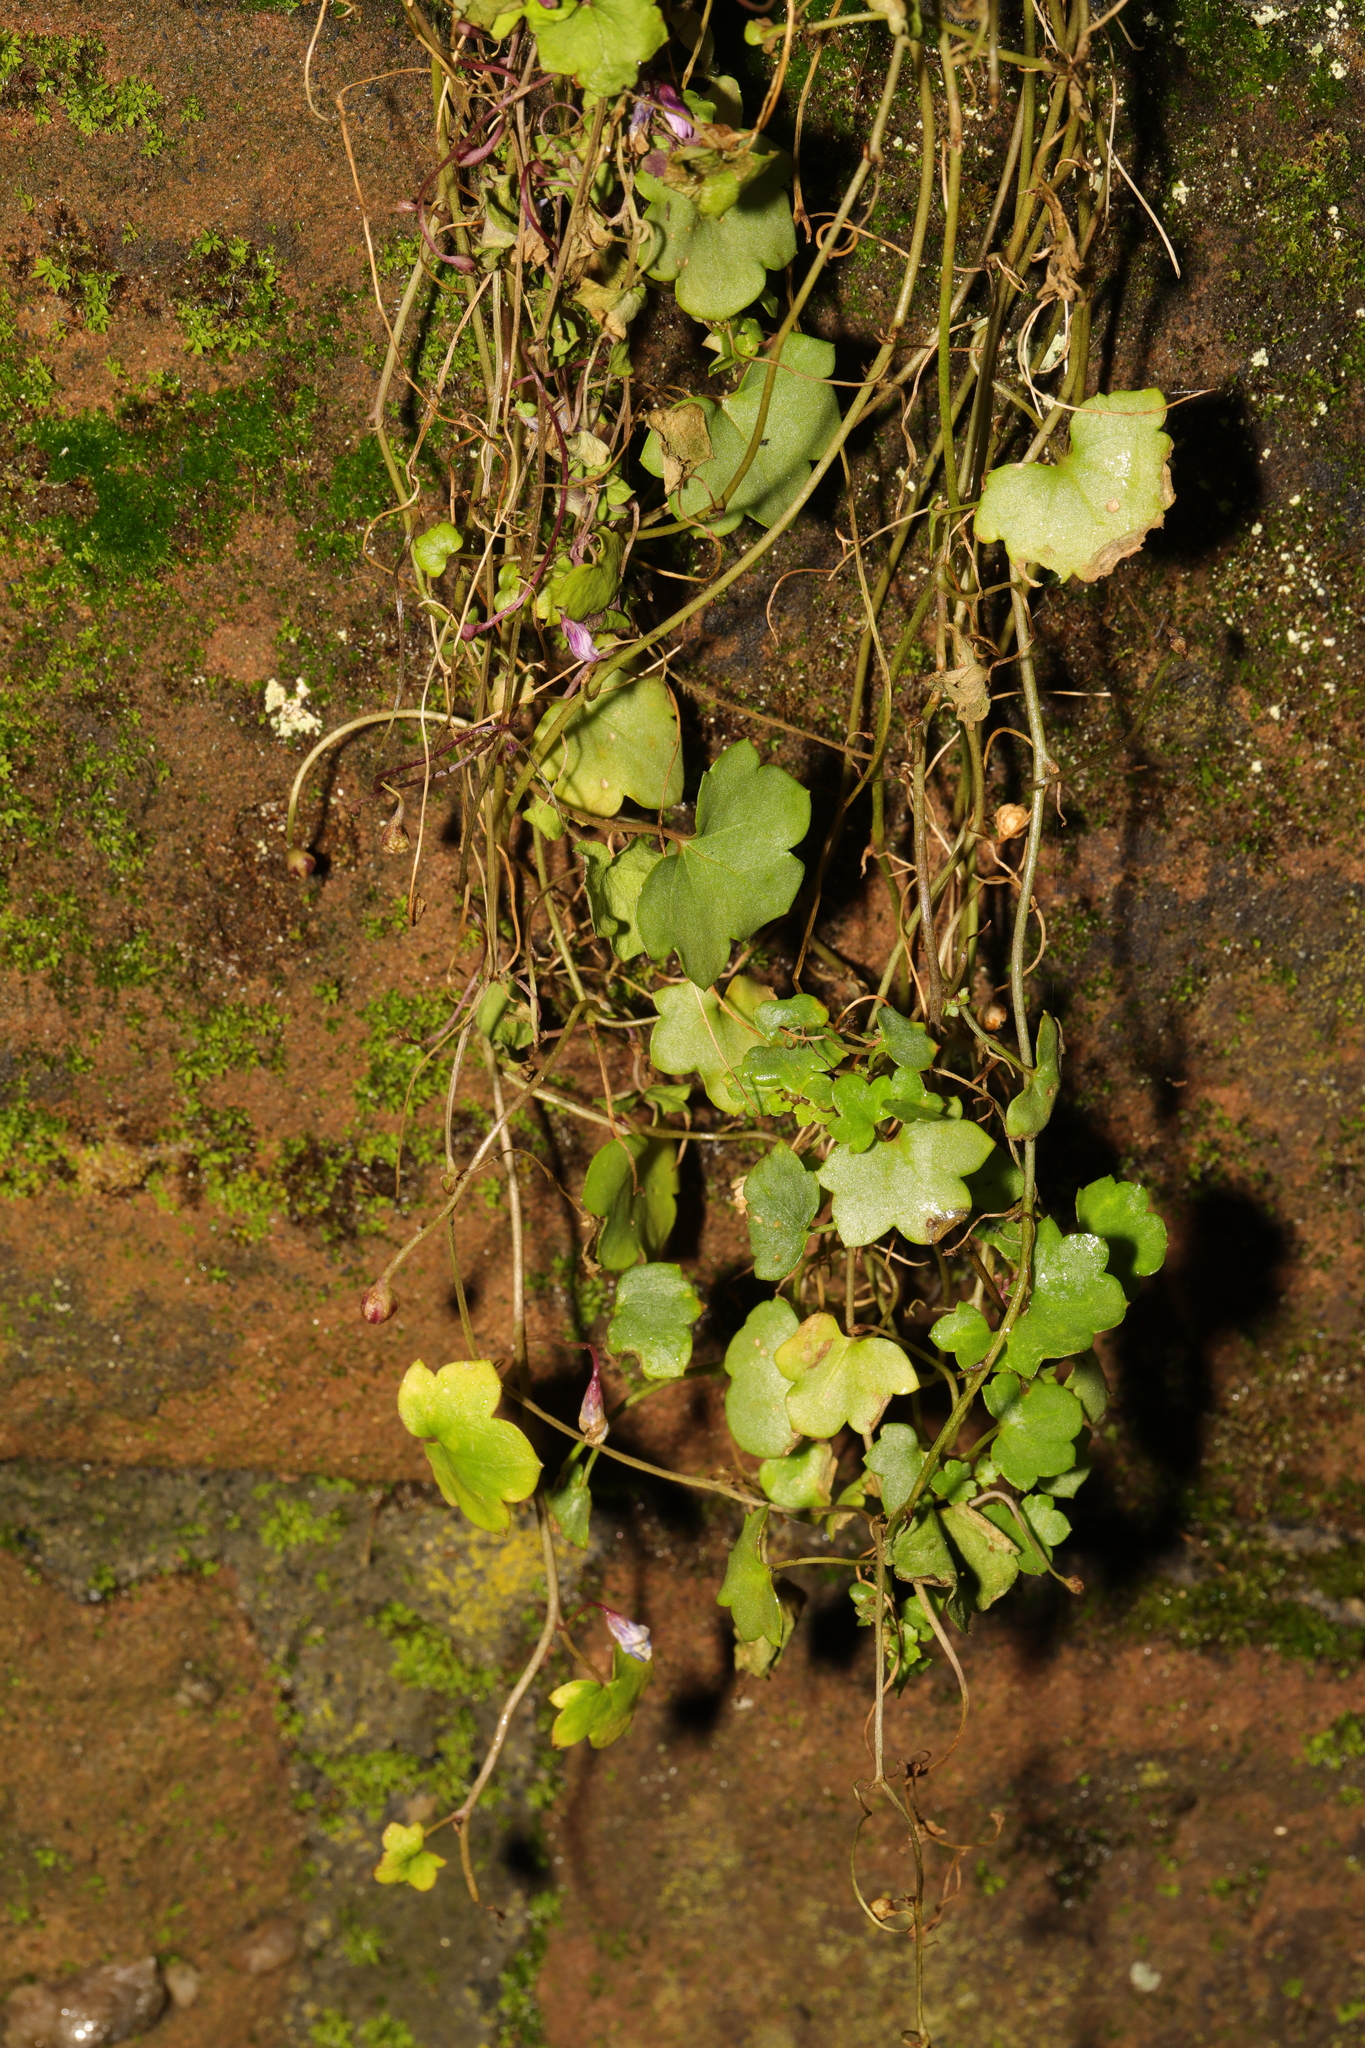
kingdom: Plantae
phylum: Tracheophyta
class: Magnoliopsida
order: Lamiales
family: Plantaginaceae
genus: Cymbalaria
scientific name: Cymbalaria muralis
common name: Ivy-leaved toadflax
